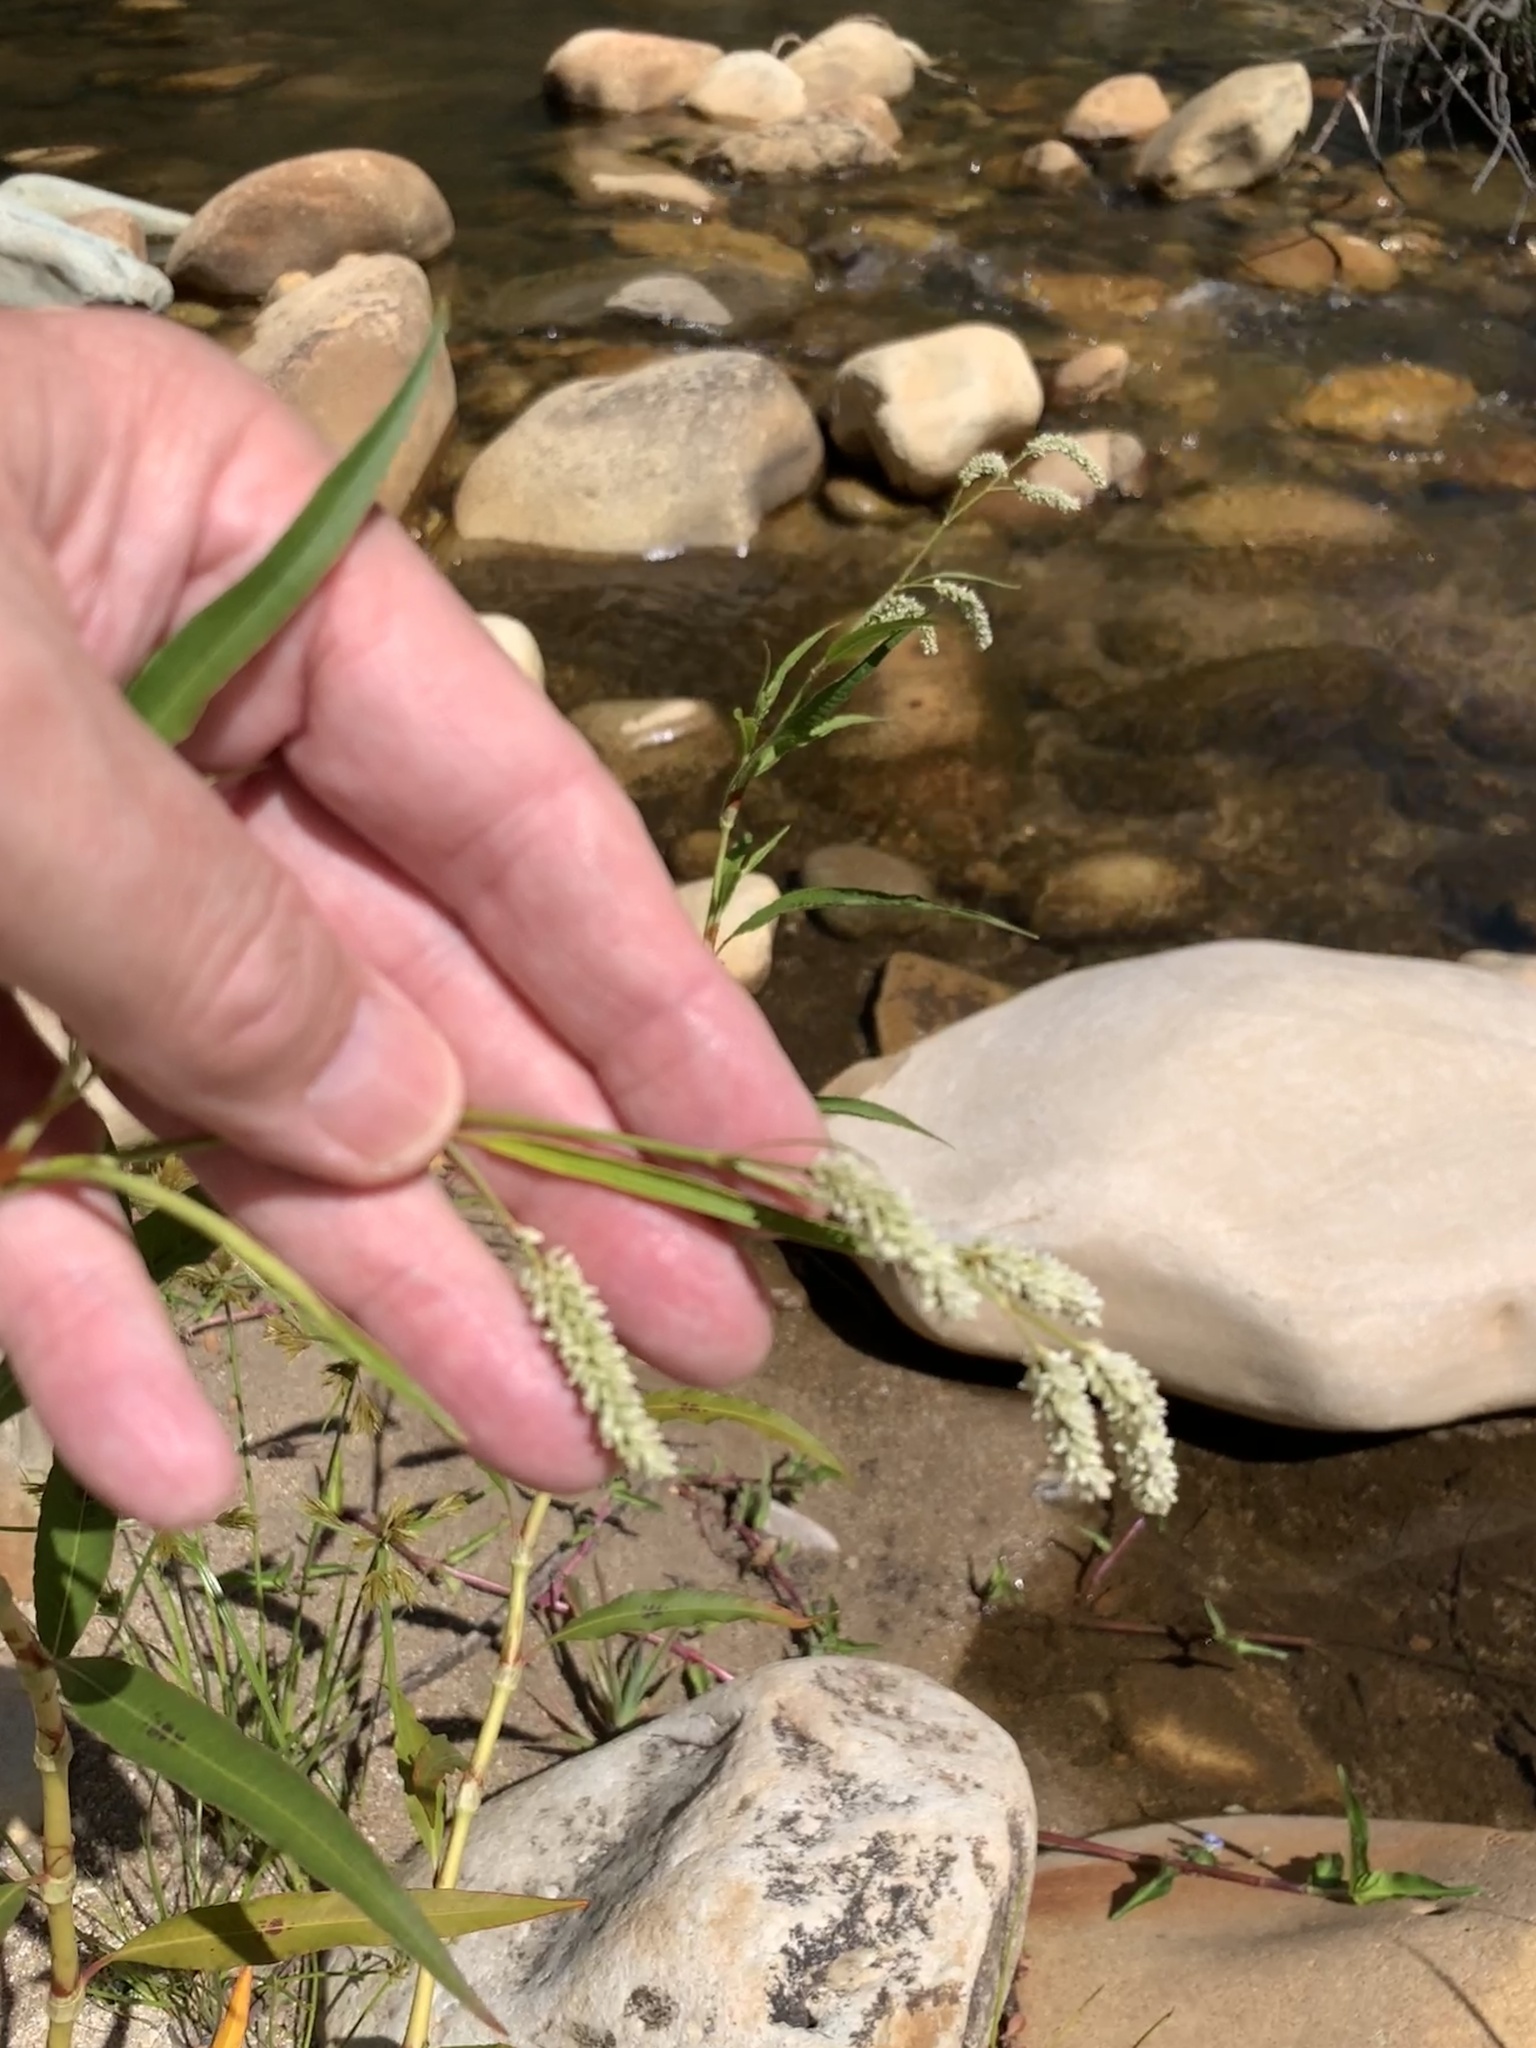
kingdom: Plantae
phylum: Tracheophyta
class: Magnoliopsida
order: Caryophyllales
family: Polygonaceae
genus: Persicaria
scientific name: Persicaria lapathifolia
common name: Curlytop knotweed
